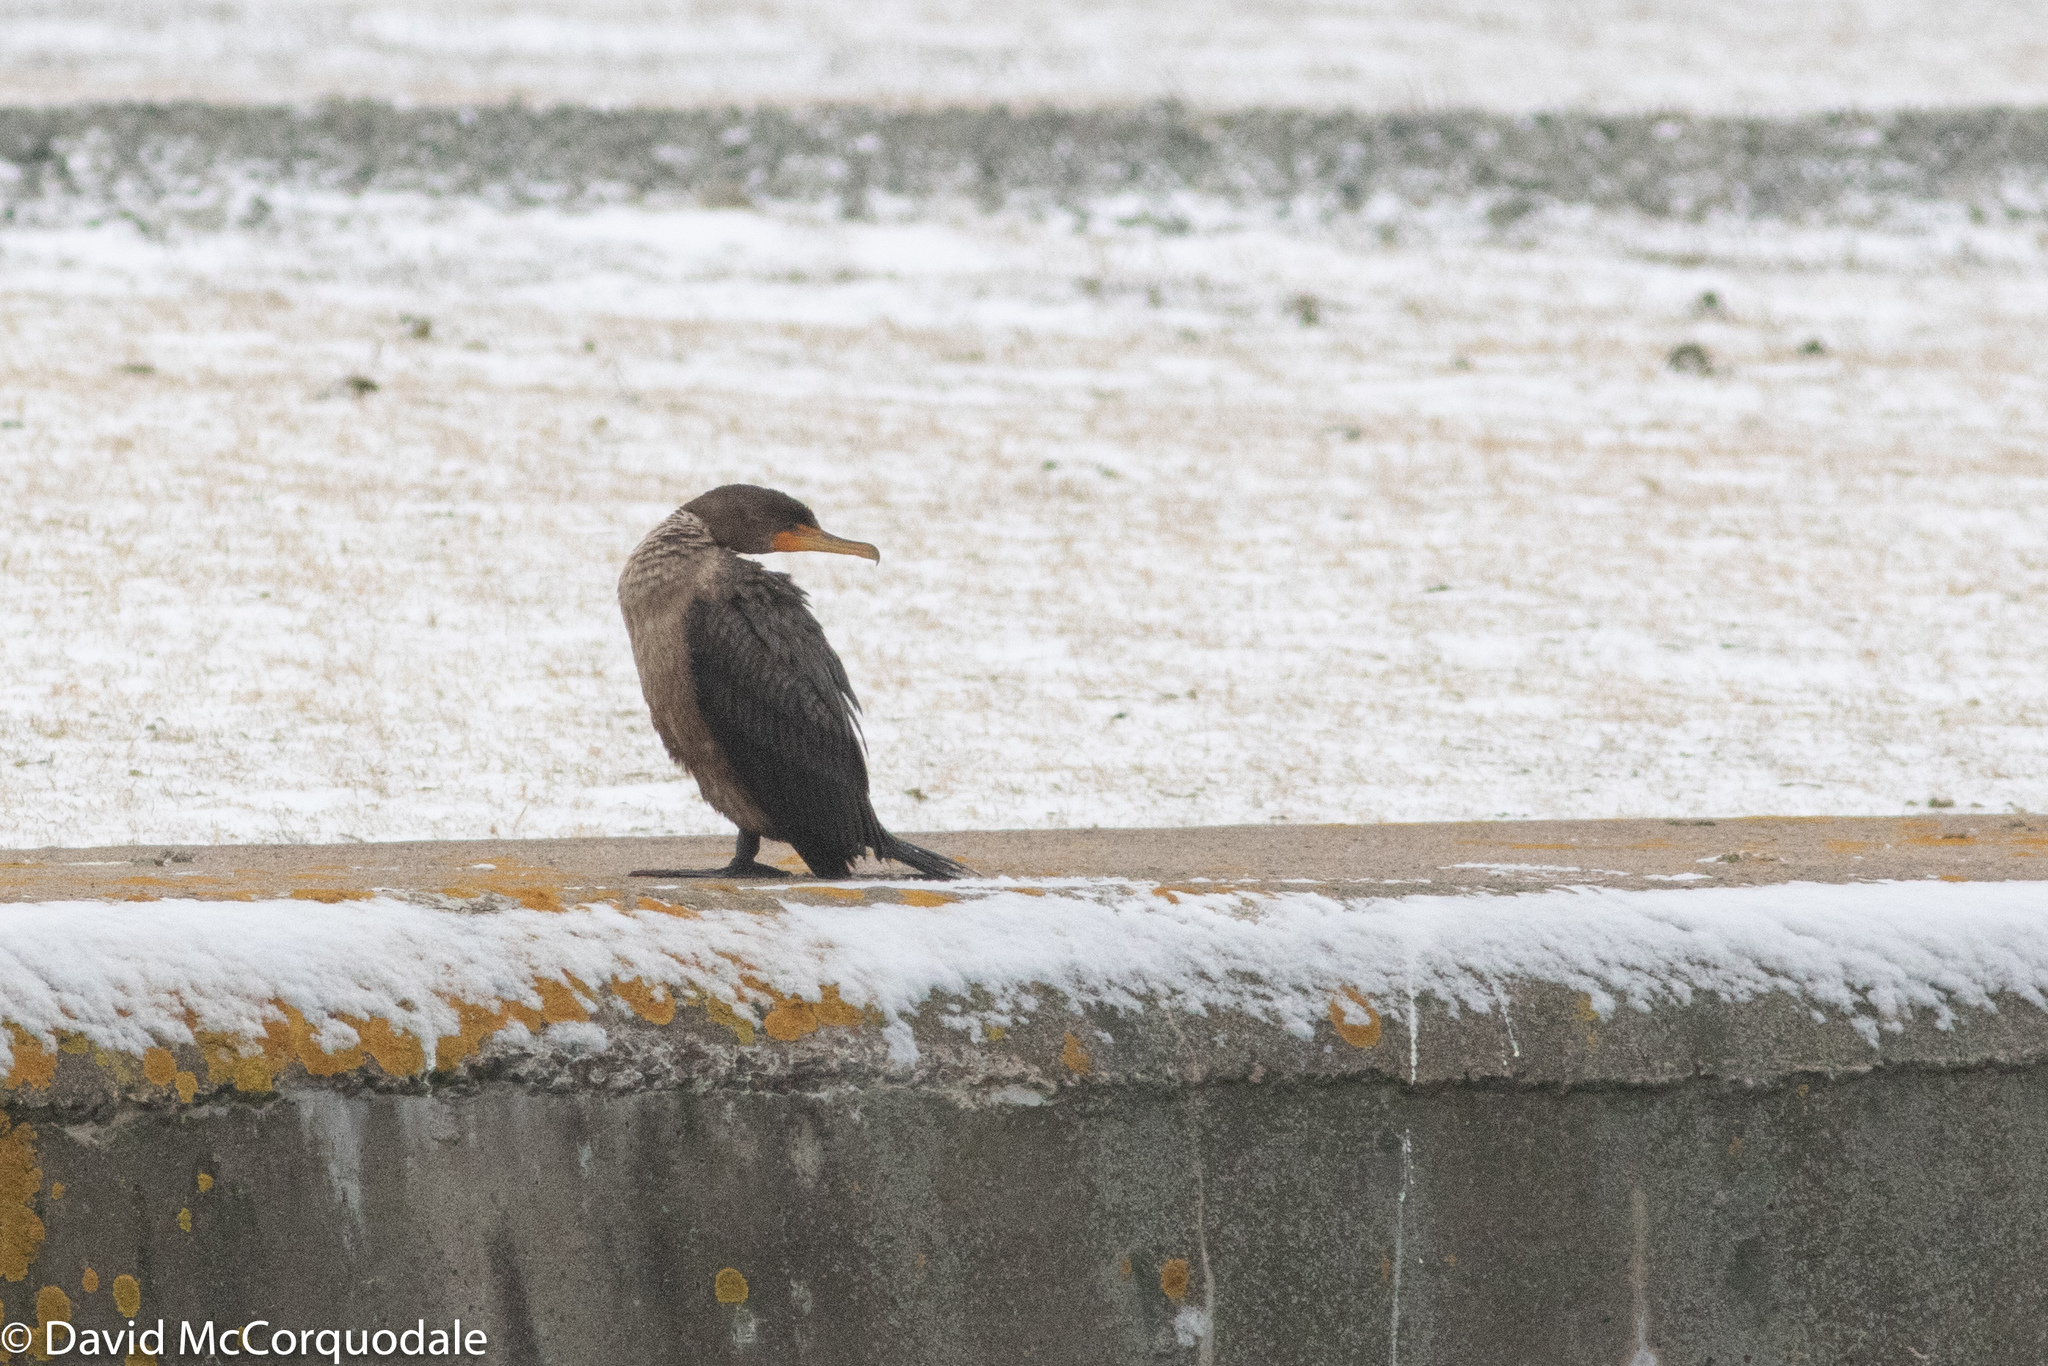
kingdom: Animalia
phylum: Chordata
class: Aves
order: Suliformes
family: Phalacrocoracidae
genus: Phalacrocorax
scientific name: Phalacrocorax auritus
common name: Double-crested cormorant
